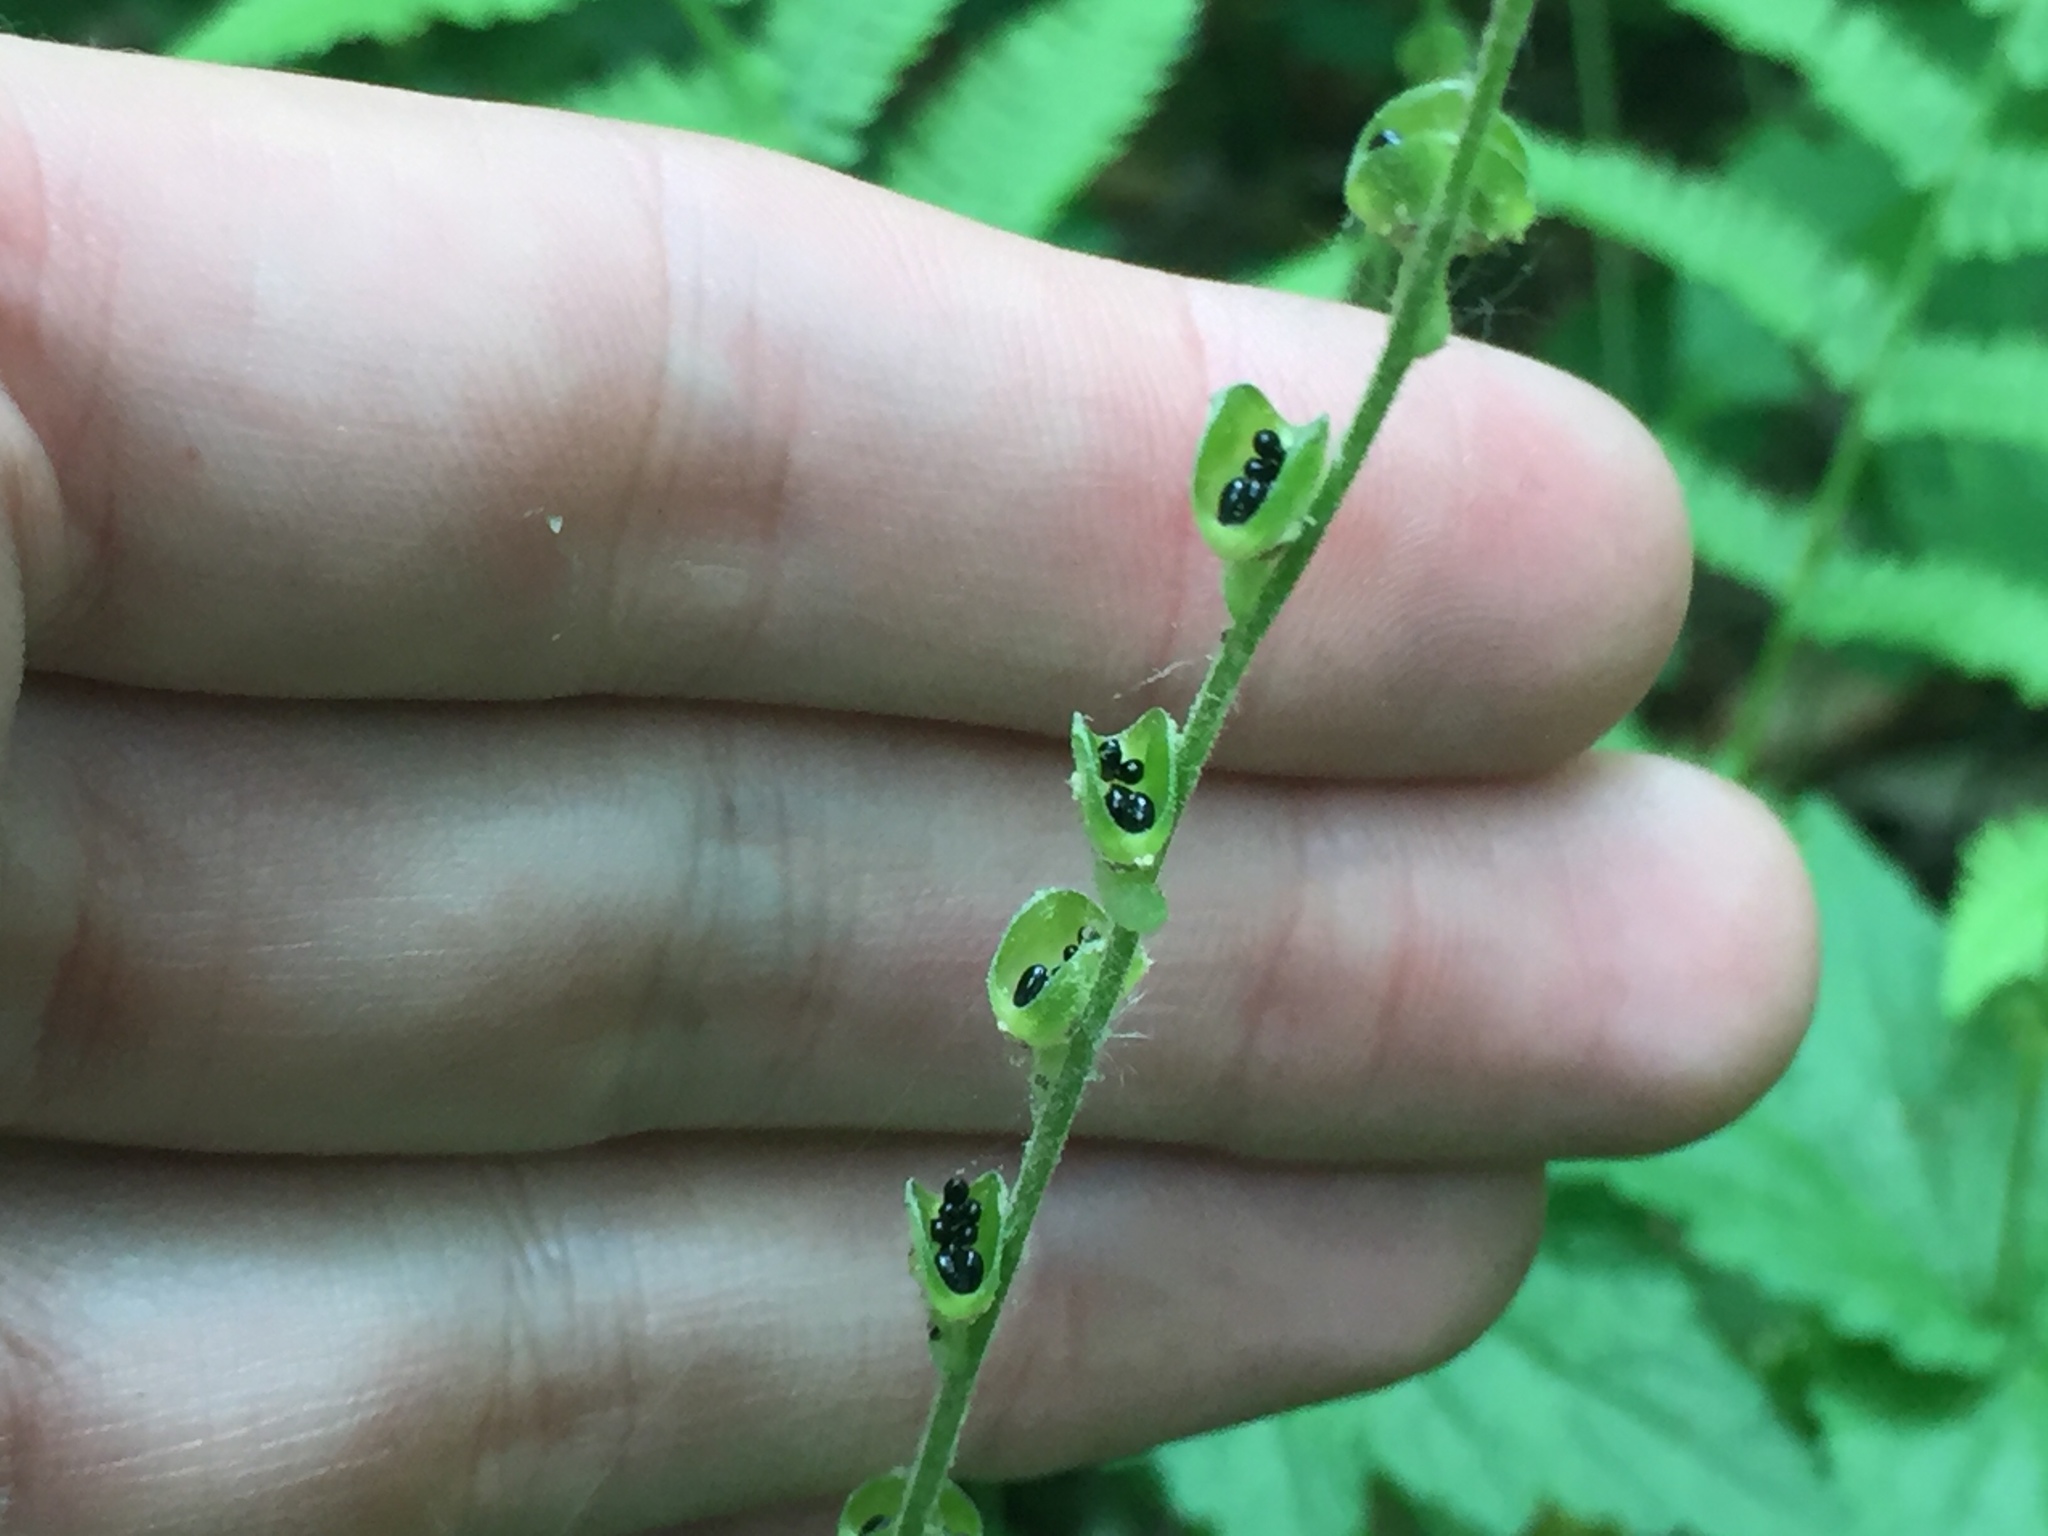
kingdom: Plantae
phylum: Tracheophyta
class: Magnoliopsida
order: Saxifragales
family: Saxifragaceae
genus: Mitella
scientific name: Mitella diphylla
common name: Coolwort
